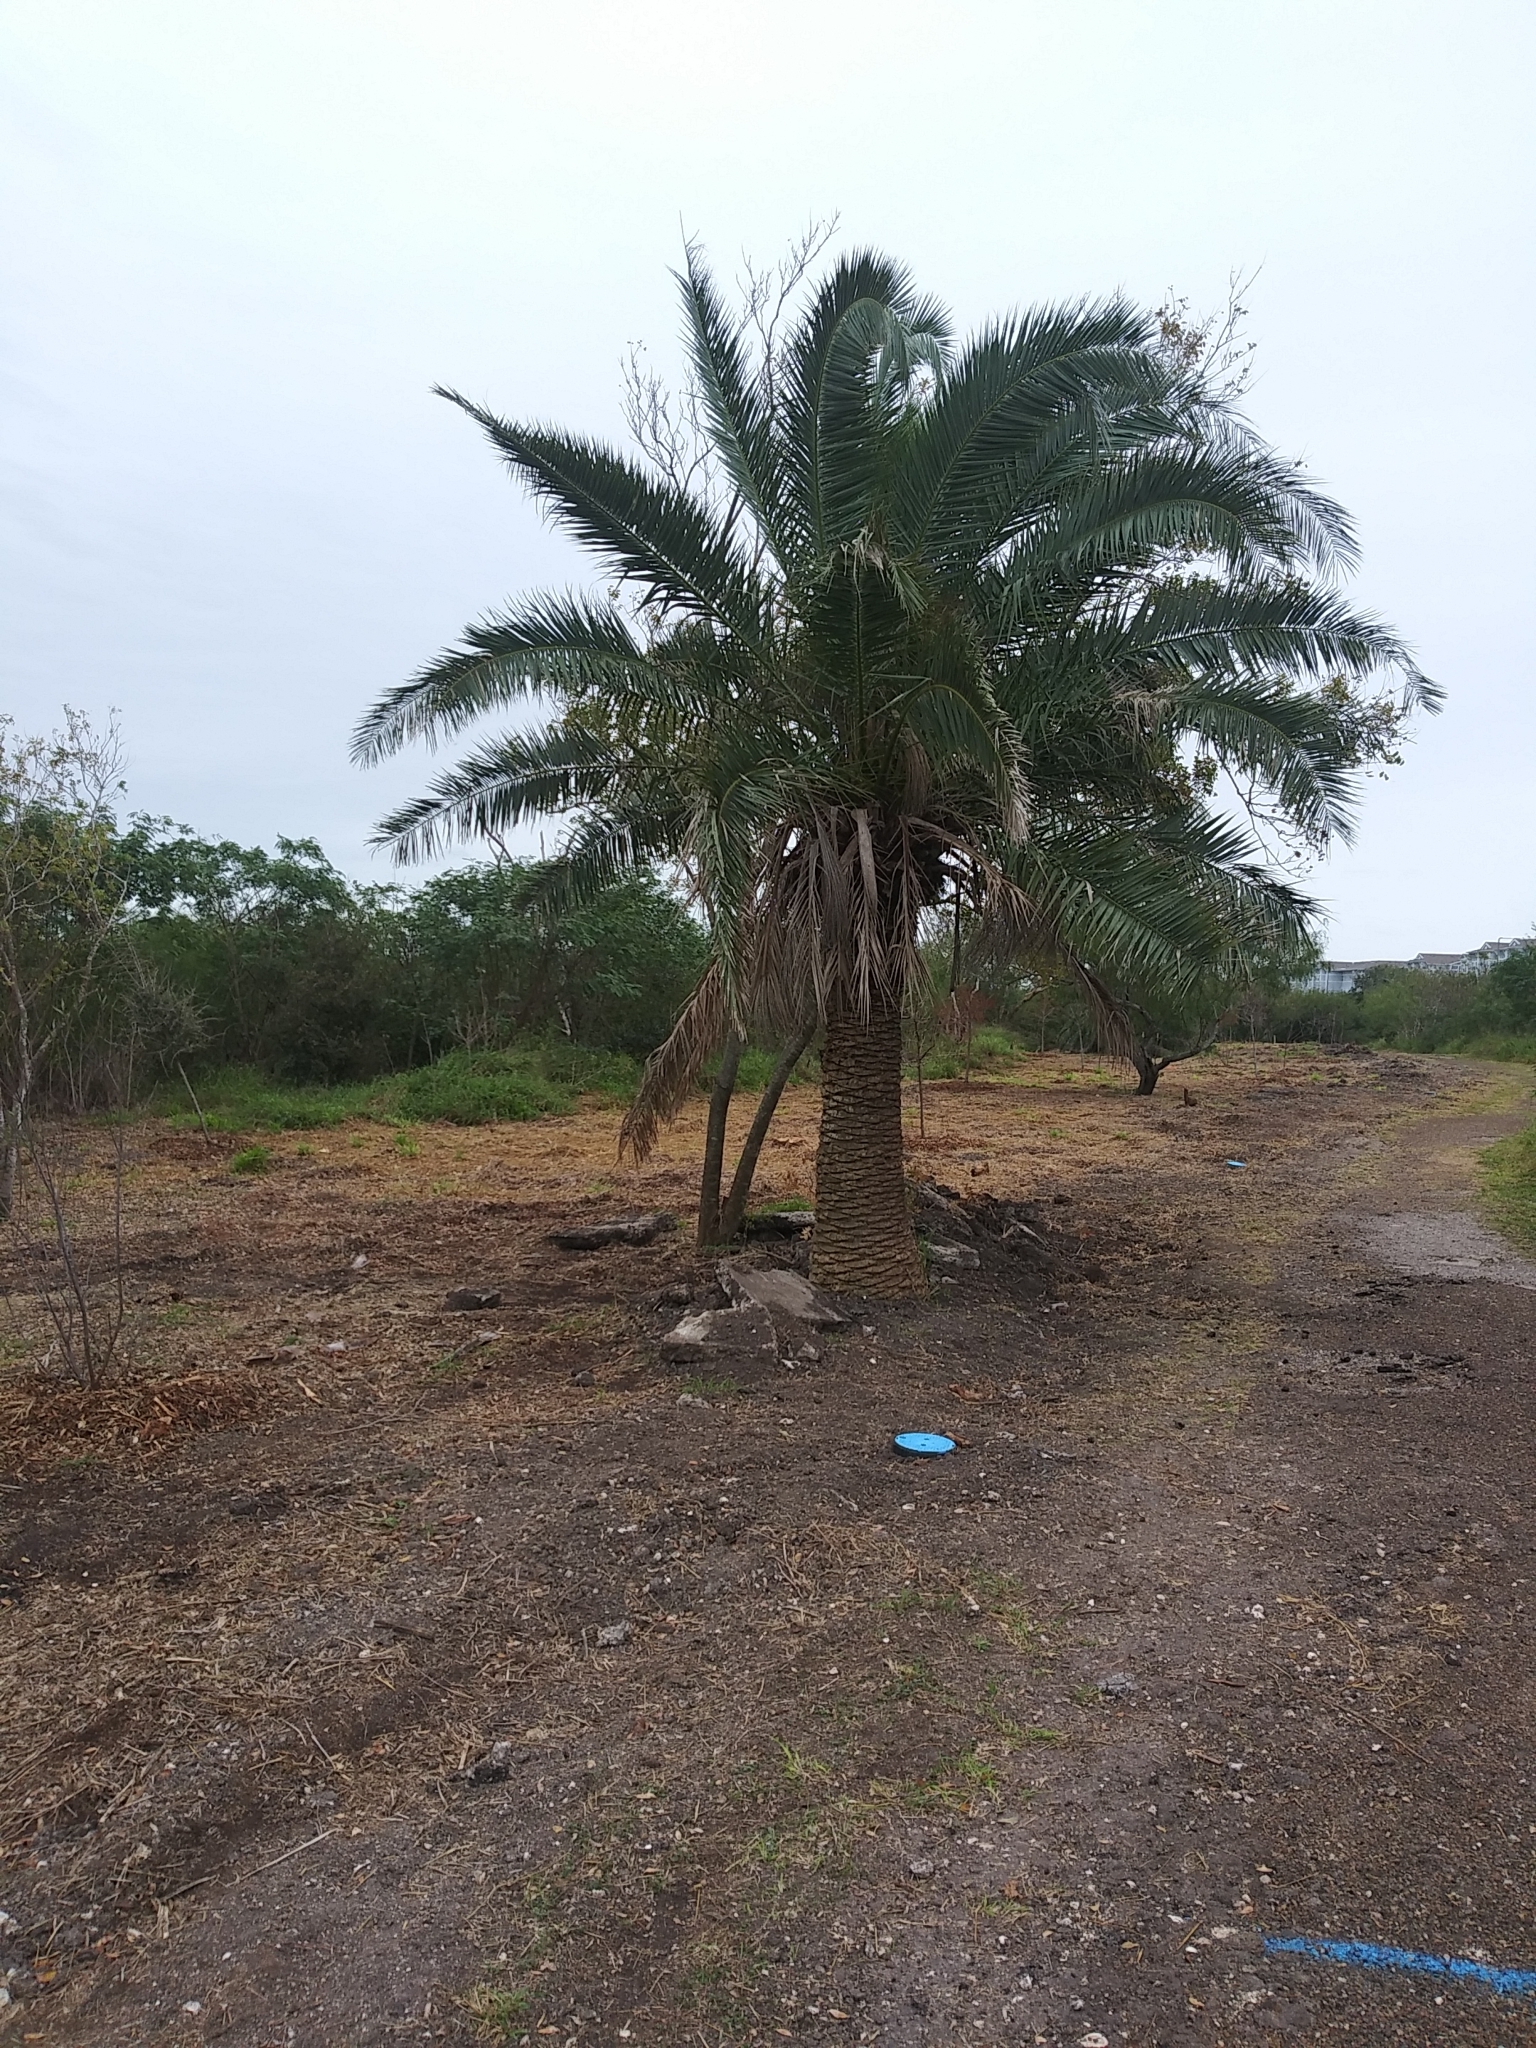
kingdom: Plantae
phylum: Tracheophyta
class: Liliopsida
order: Arecales
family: Arecaceae
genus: Phoenix
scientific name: Phoenix canariensis
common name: Canary island date palm
